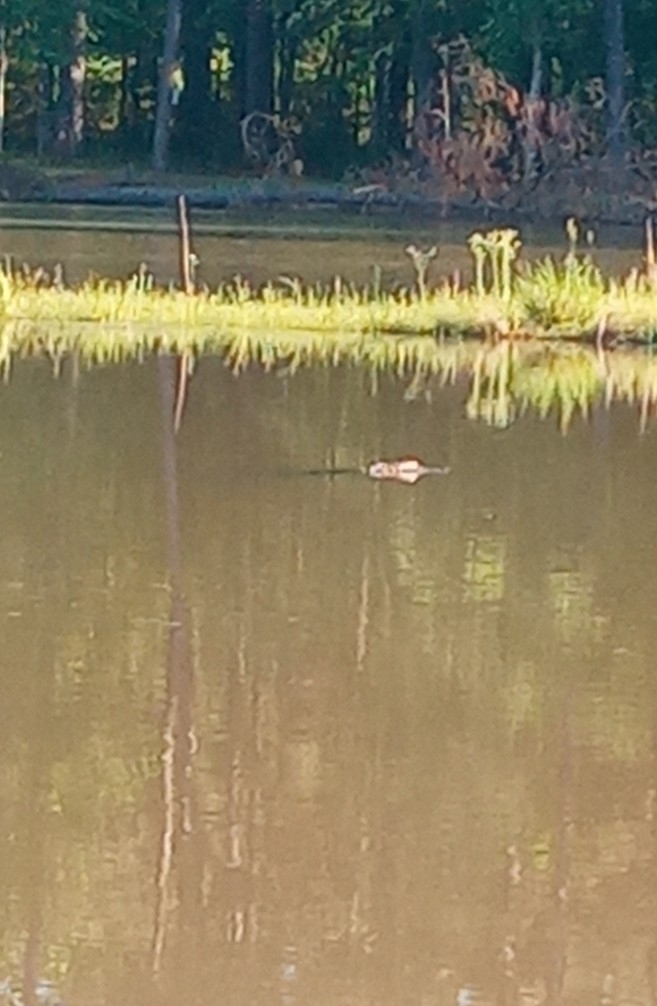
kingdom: Animalia
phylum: Chordata
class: Crocodylia
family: Alligatoridae
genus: Alligator
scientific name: Alligator mississippiensis
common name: American alligator
